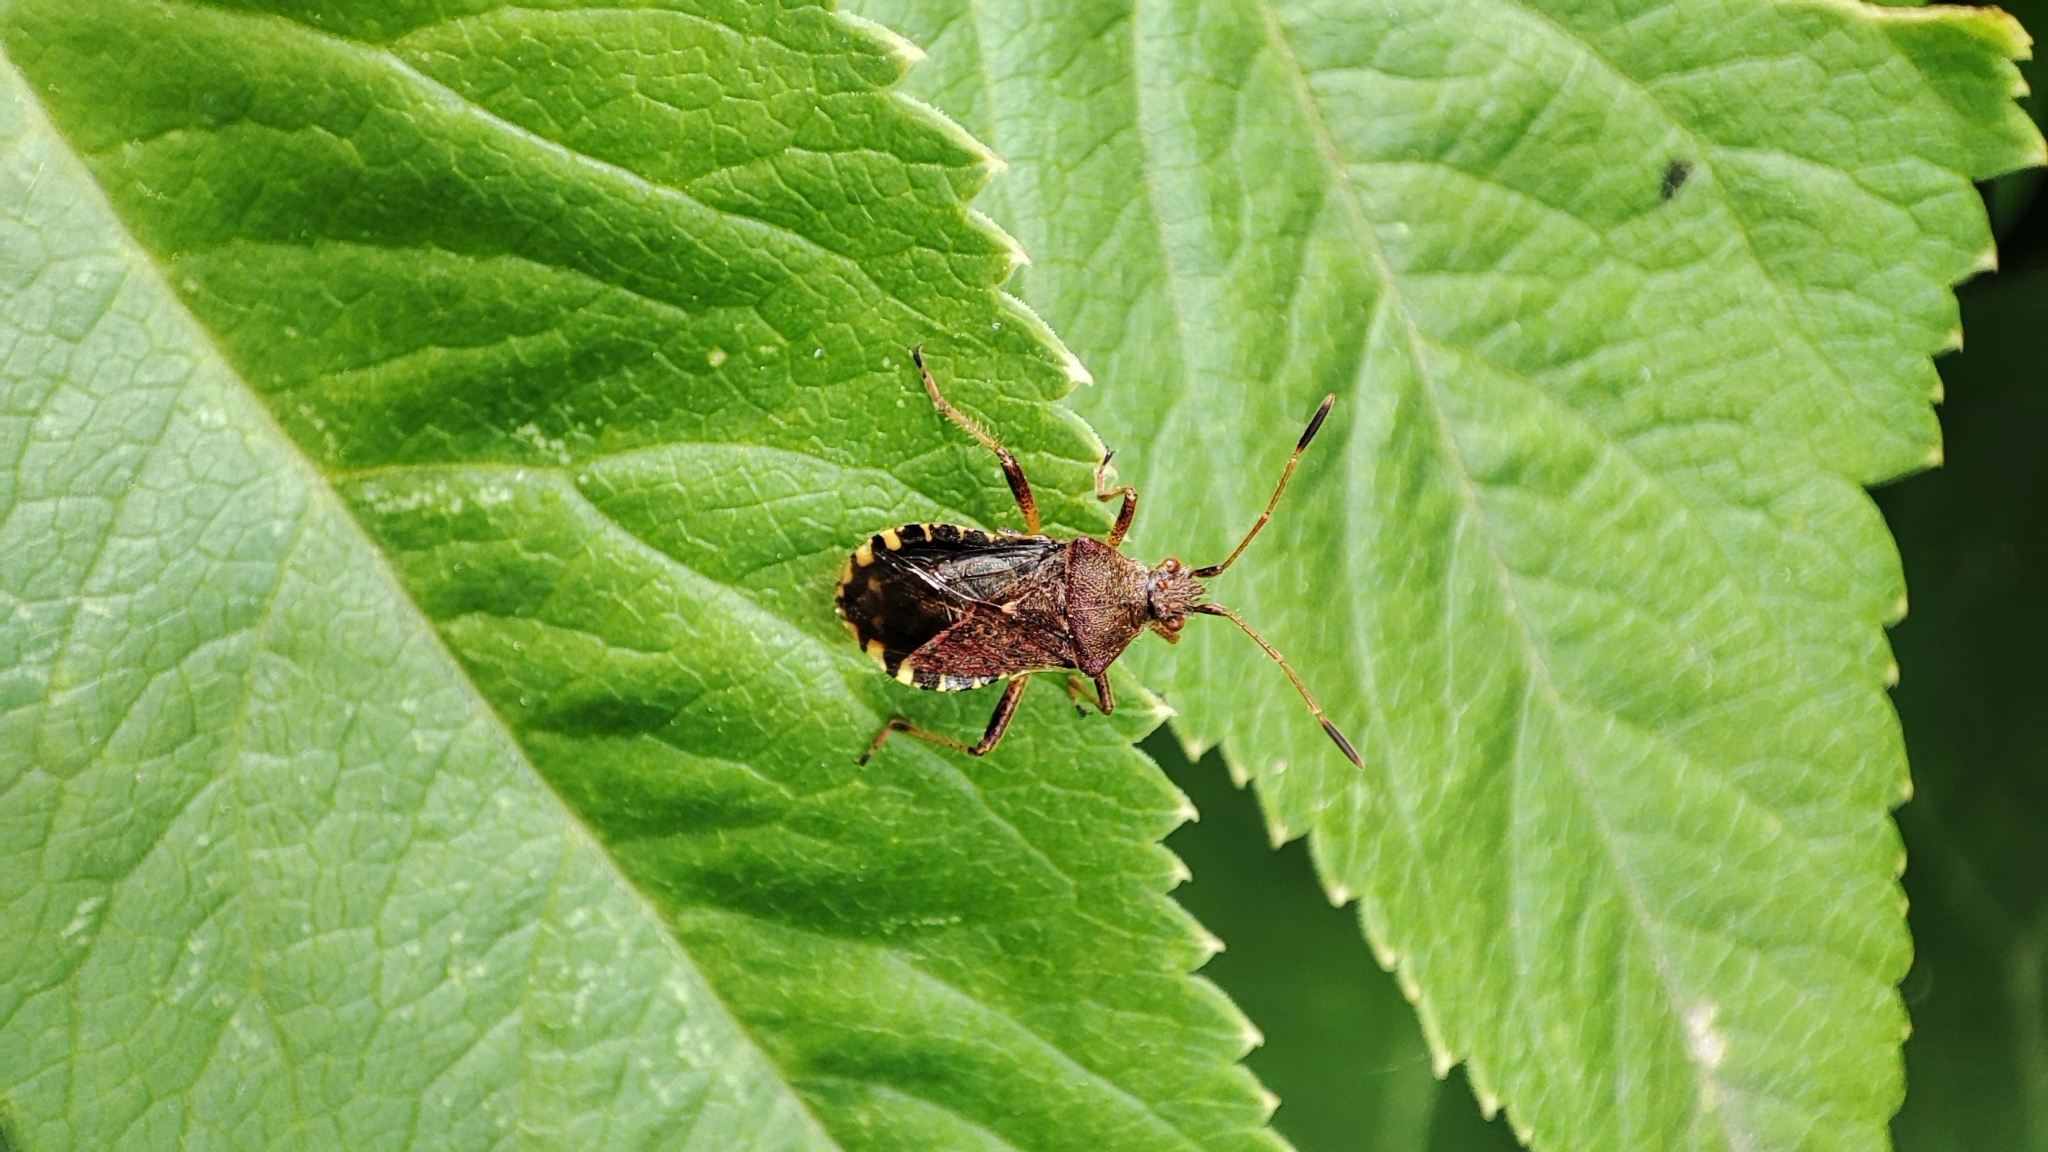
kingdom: Animalia
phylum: Arthropoda
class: Insecta
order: Hemiptera
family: Rhopalidae
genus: Rhopalus
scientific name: Rhopalus latus
